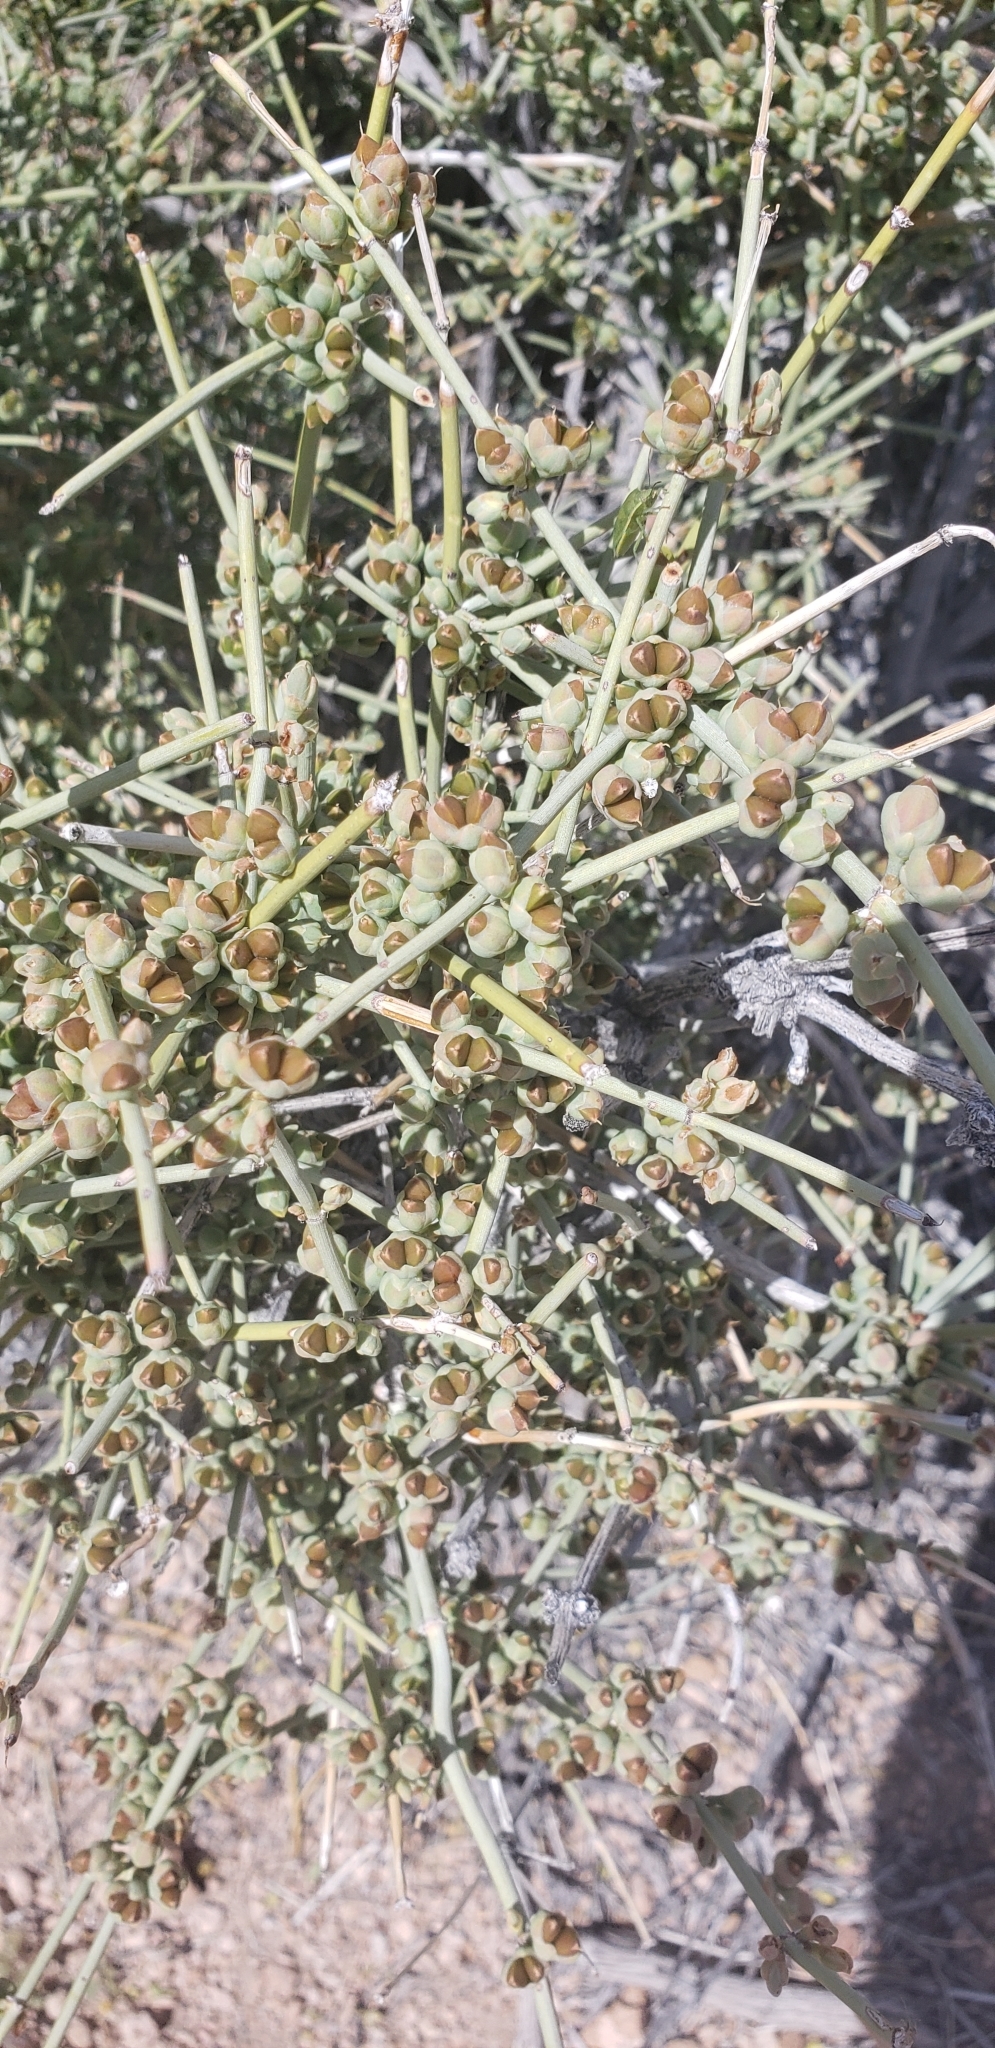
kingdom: Plantae
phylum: Tracheophyta
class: Gnetopsida
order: Ephedrales
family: Ephedraceae
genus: Ephedra
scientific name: Ephedra nevadensis
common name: Gray ephedra
